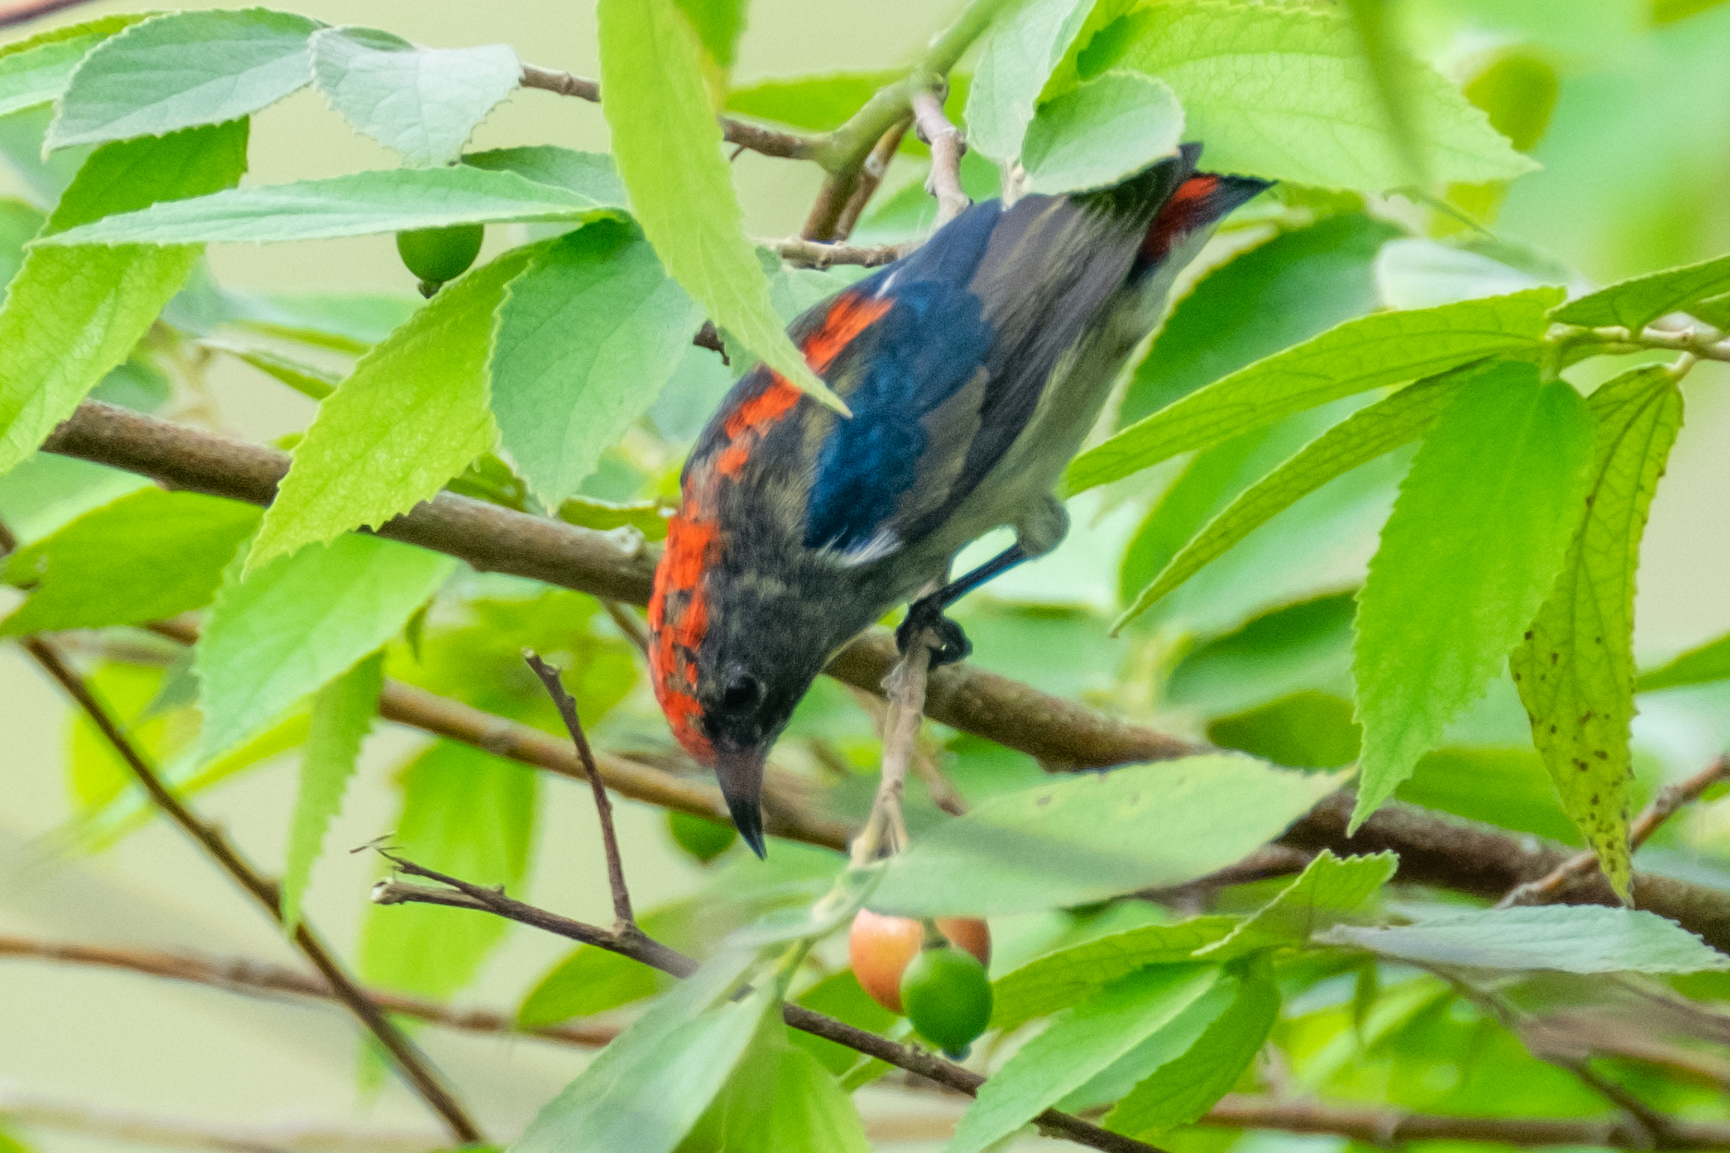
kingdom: Animalia
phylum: Chordata
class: Aves
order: Passeriformes
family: Dicaeidae
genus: Dicaeum
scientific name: Dicaeum cruentatum
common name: Scarlet-backed flowerpecker
